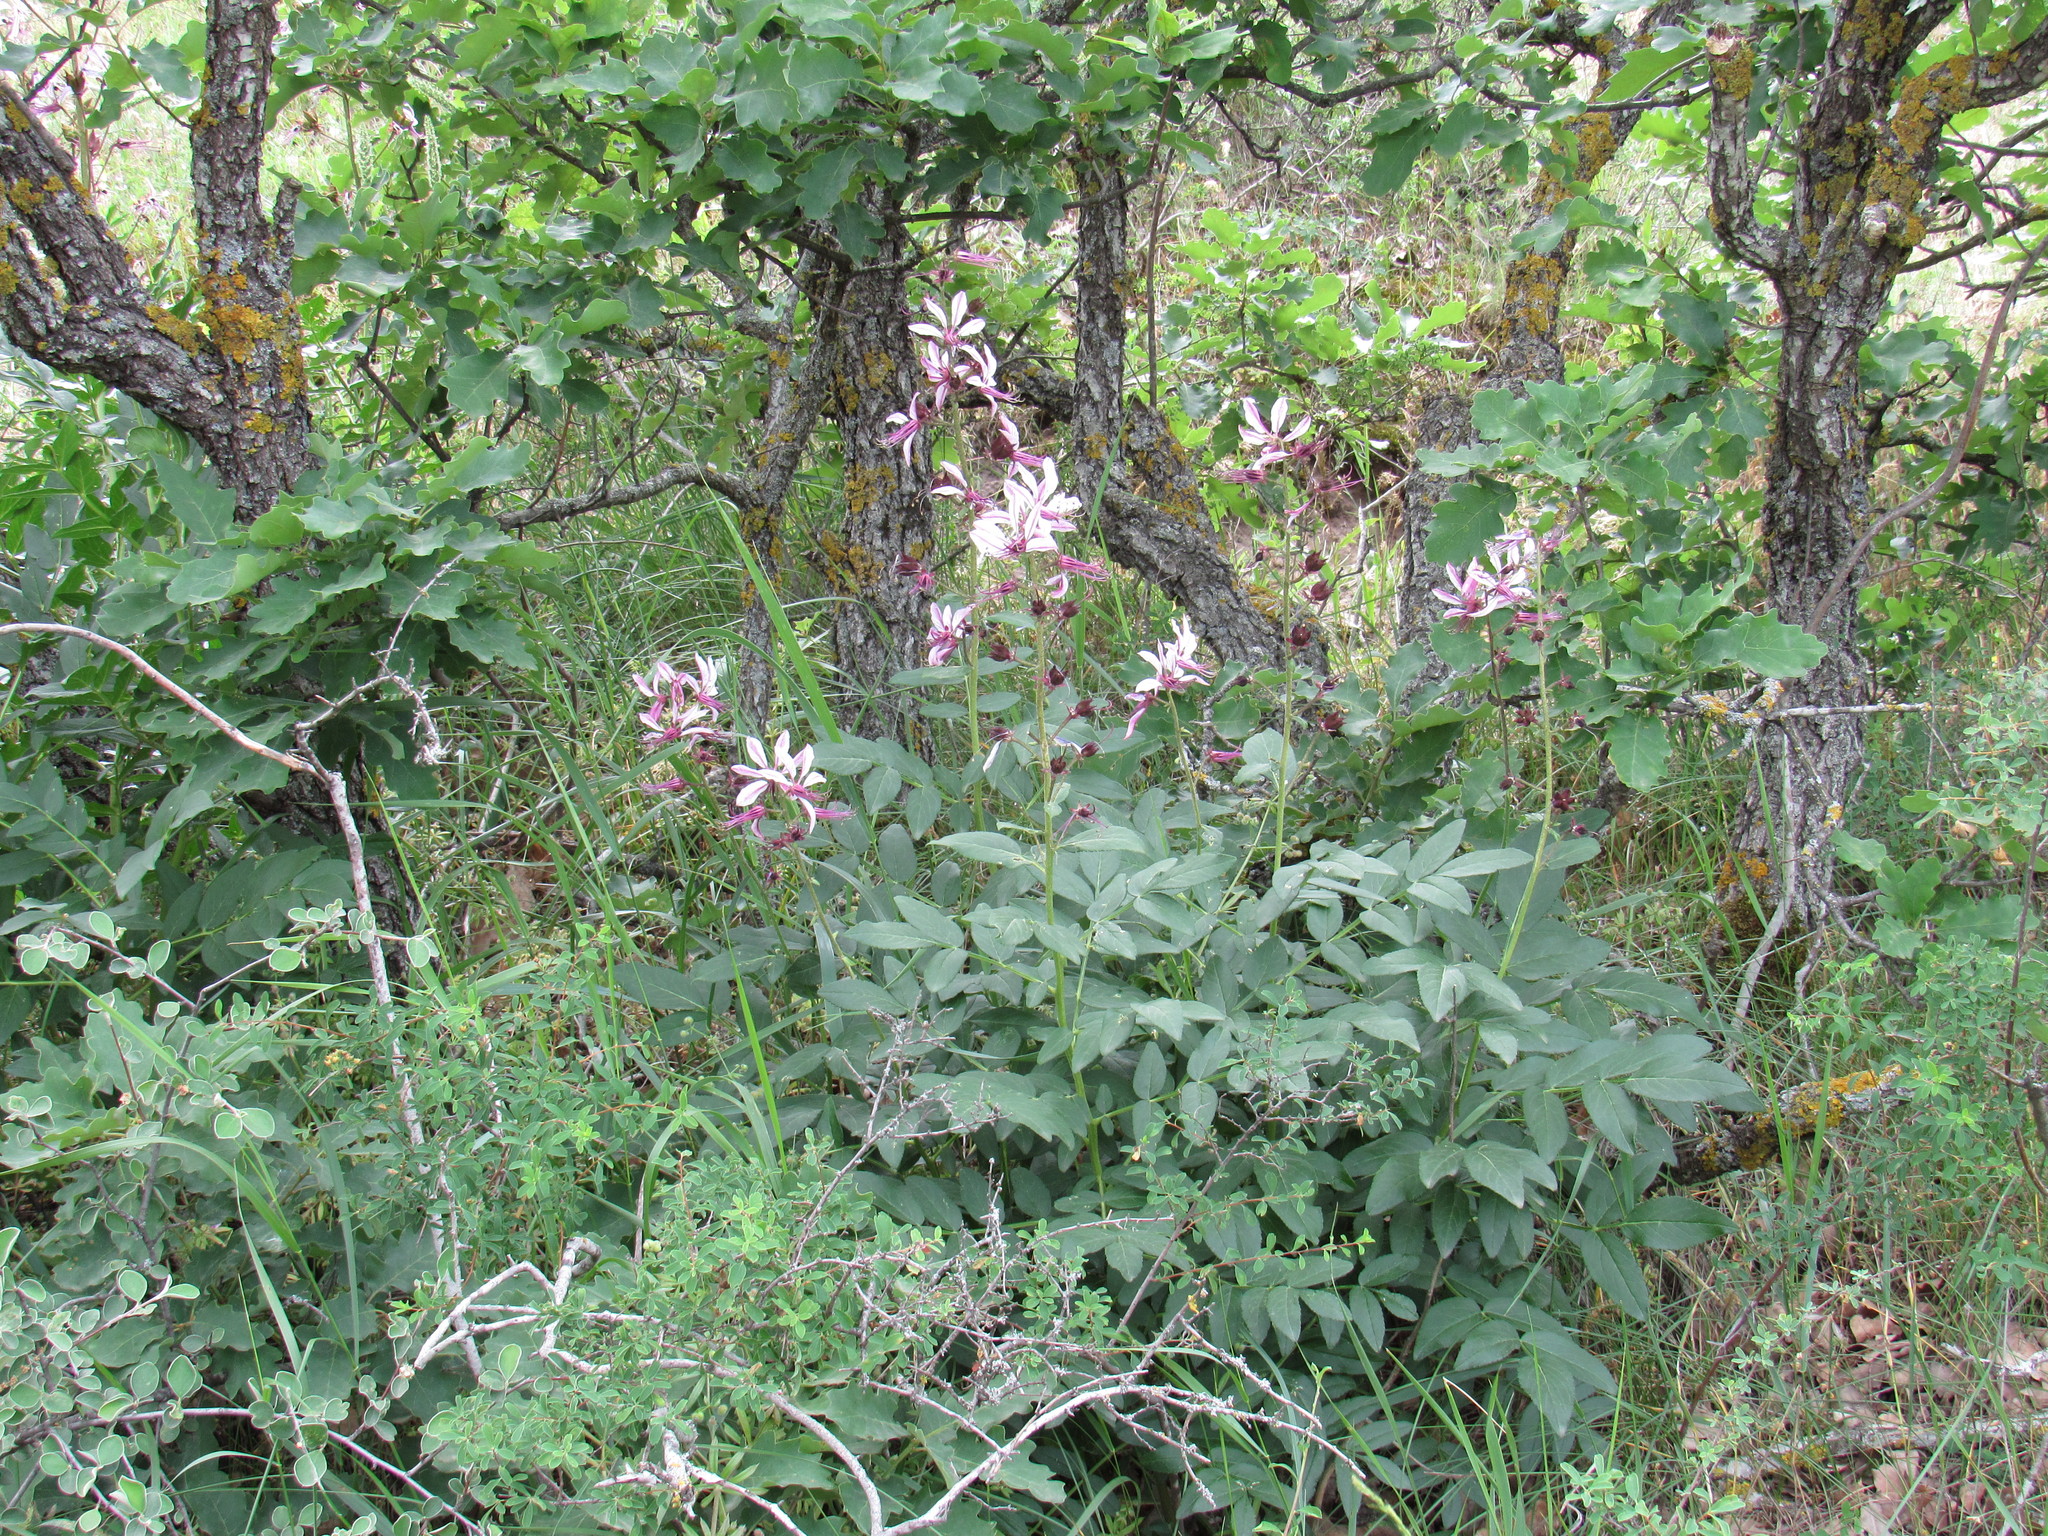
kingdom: Plantae
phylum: Tracheophyta
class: Magnoliopsida
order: Sapindales
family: Rutaceae
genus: Dictamnus
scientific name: Dictamnus albus
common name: Gasplant
